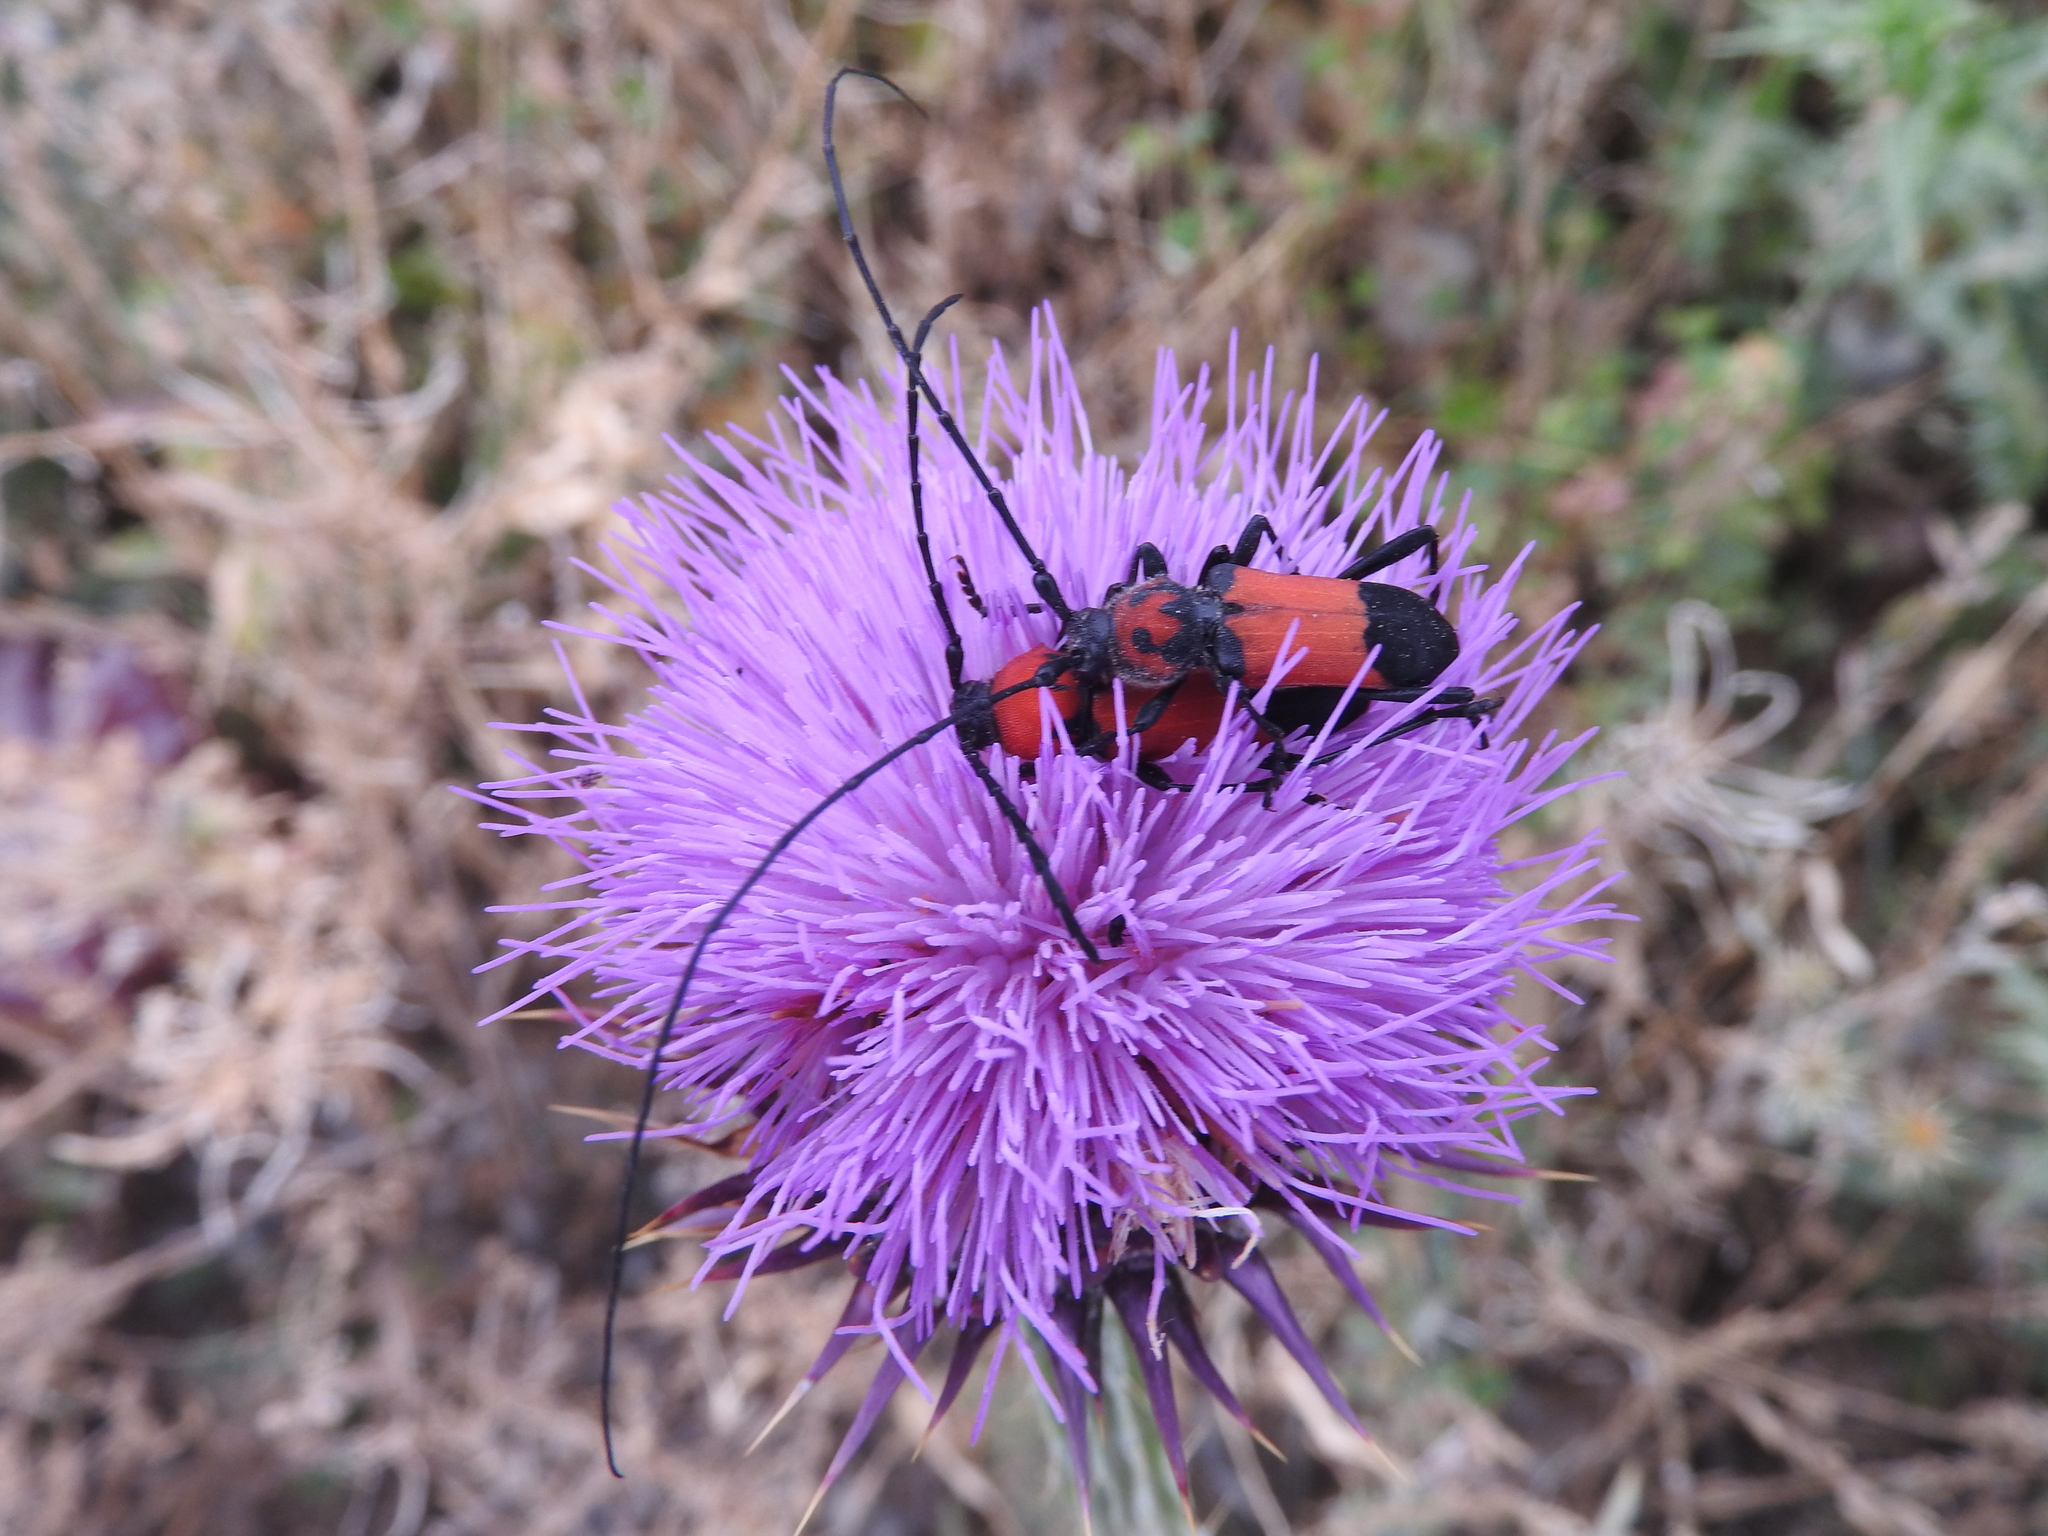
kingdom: Animalia
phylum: Arthropoda
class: Insecta
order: Coleoptera
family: Cerambycidae
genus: Purpuricenus
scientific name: Purpuricenus desfontainii
